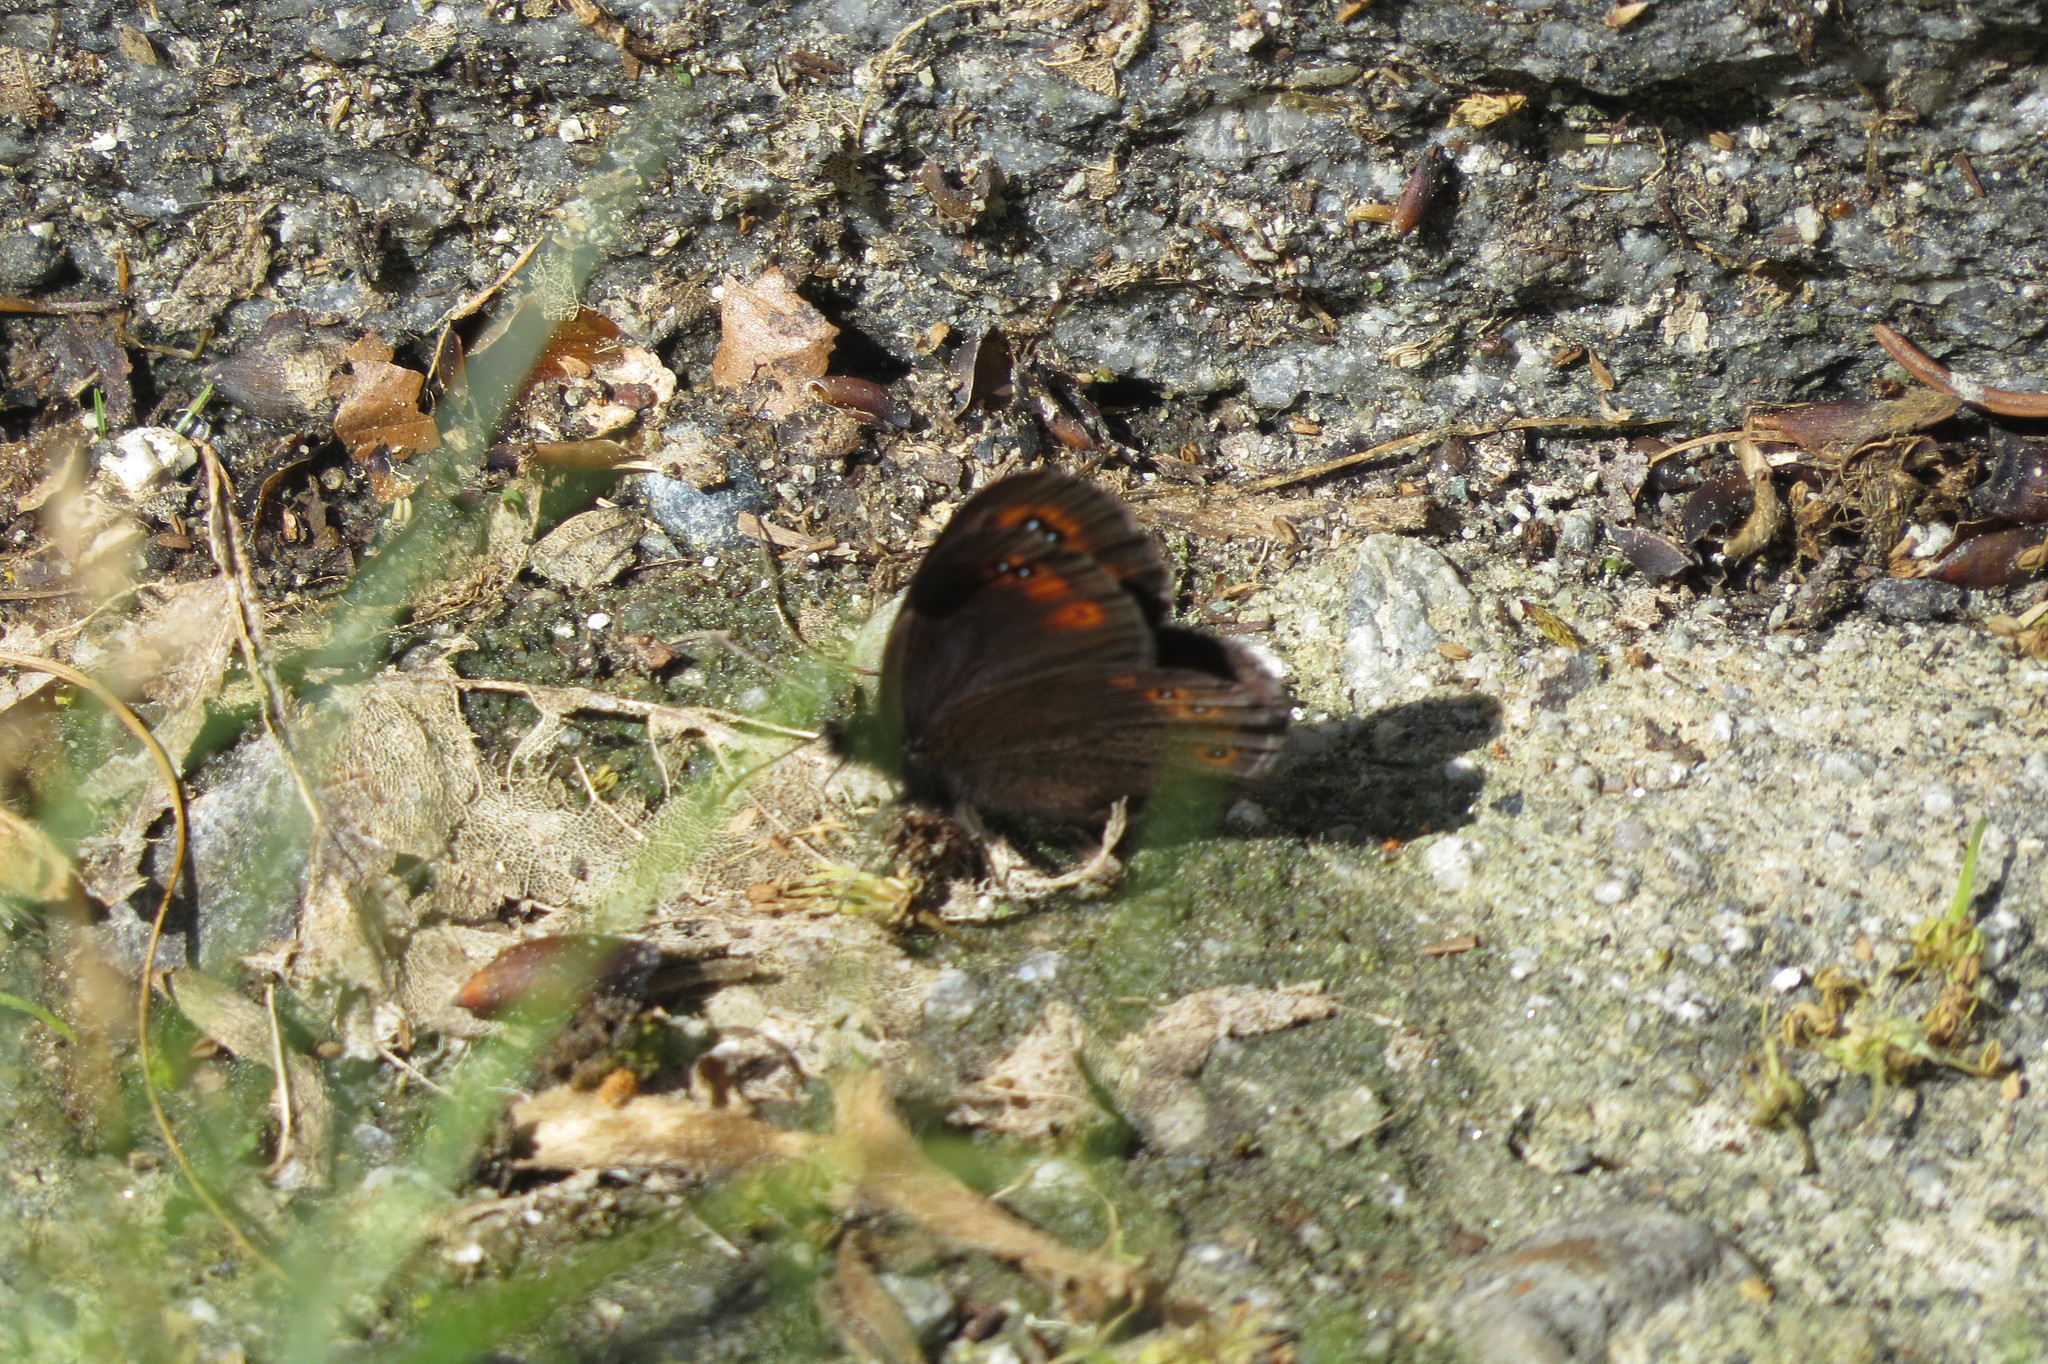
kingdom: Animalia
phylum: Arthropoda
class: Insecta
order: Lepidoptera
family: Nymphalidae
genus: Erebia
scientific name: Erebia medusa
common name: Woodland ringlet
